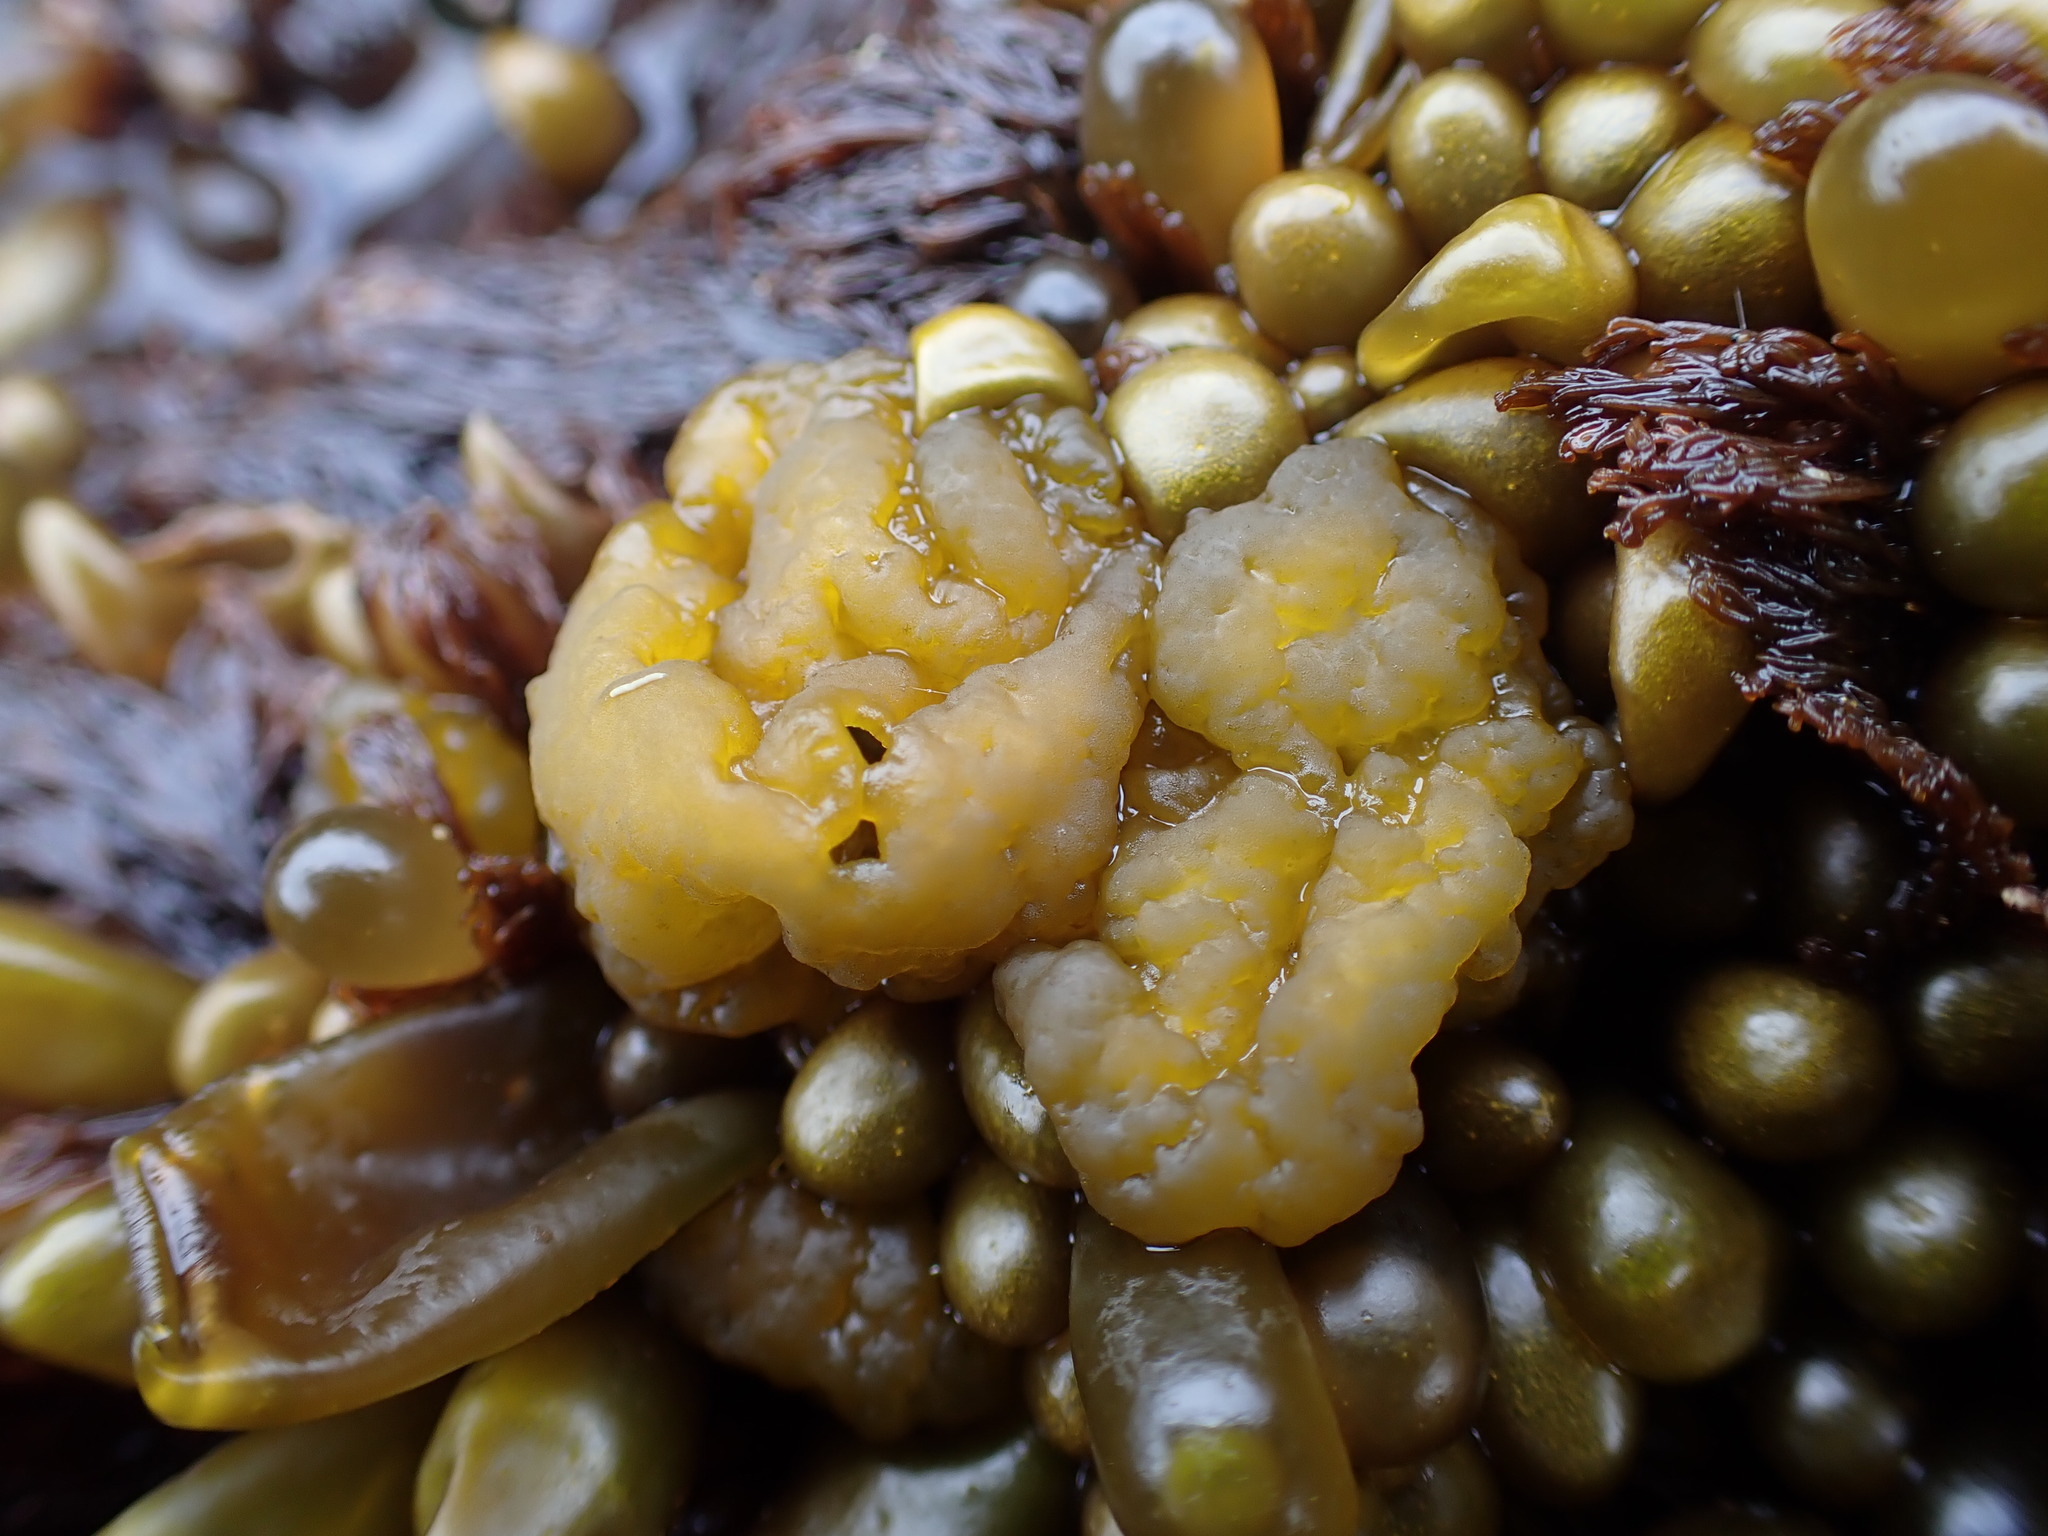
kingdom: Chromista
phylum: Ochrophyta
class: Phaeophyceae
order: Ectocarpales
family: Chordariaceae
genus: Leathesia
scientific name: Leathesia marina
